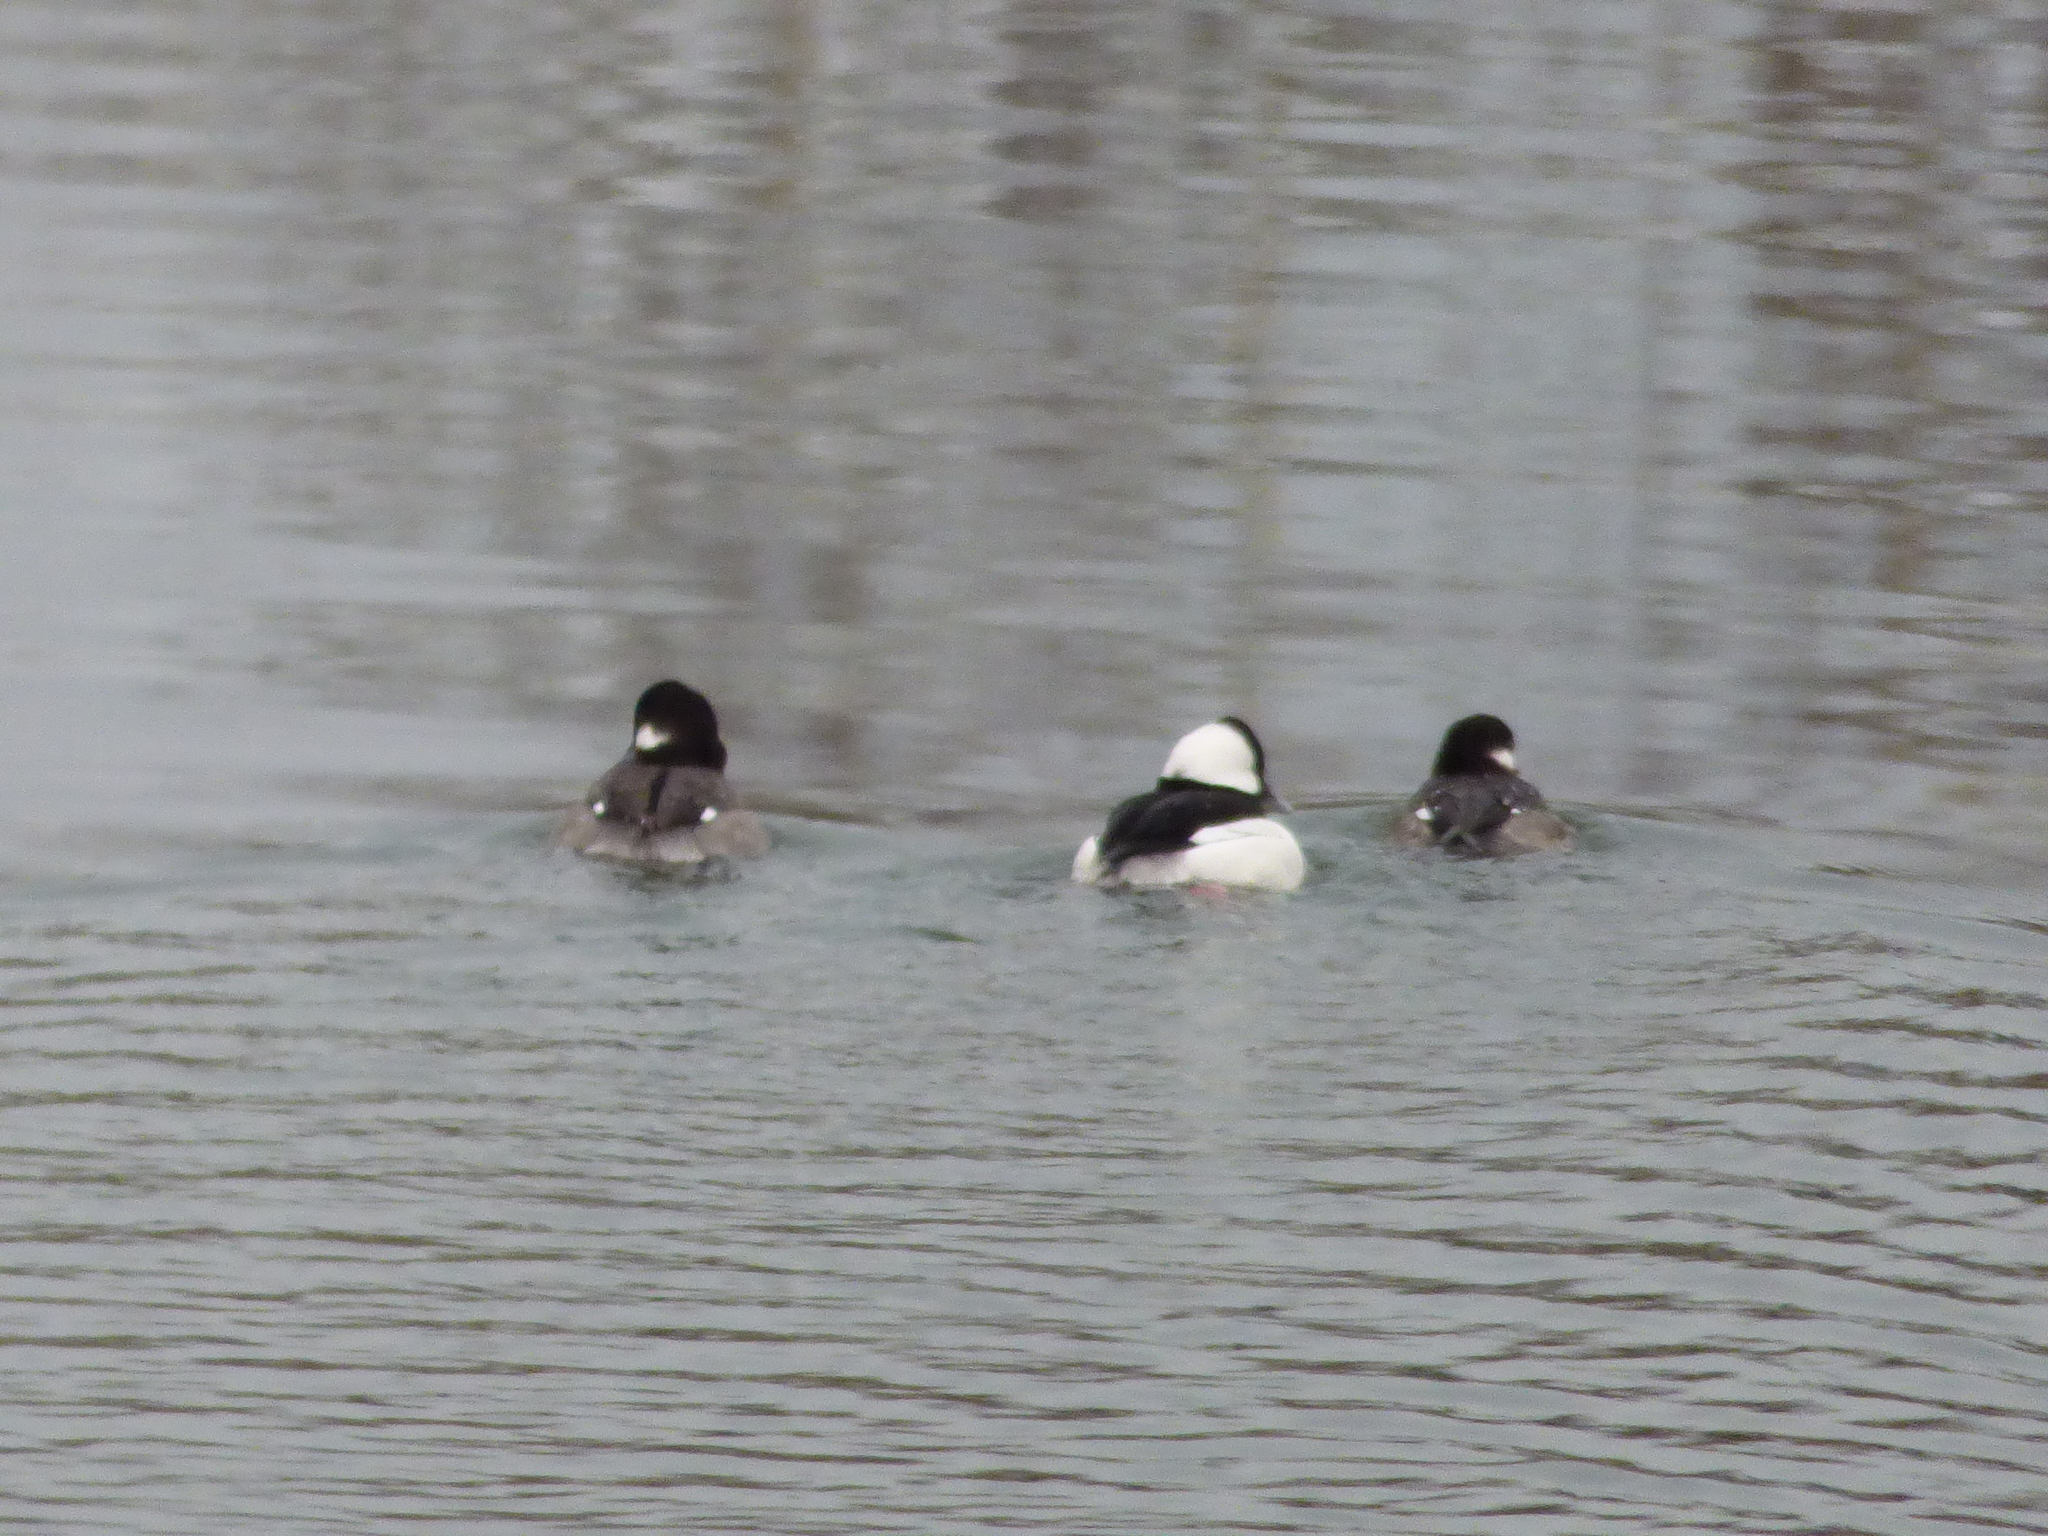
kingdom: Animalia
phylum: Chordata
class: Aves
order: Anseriformes
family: Anatidae
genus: Bucephala
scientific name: Bucephala albeola
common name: Bufflehead
